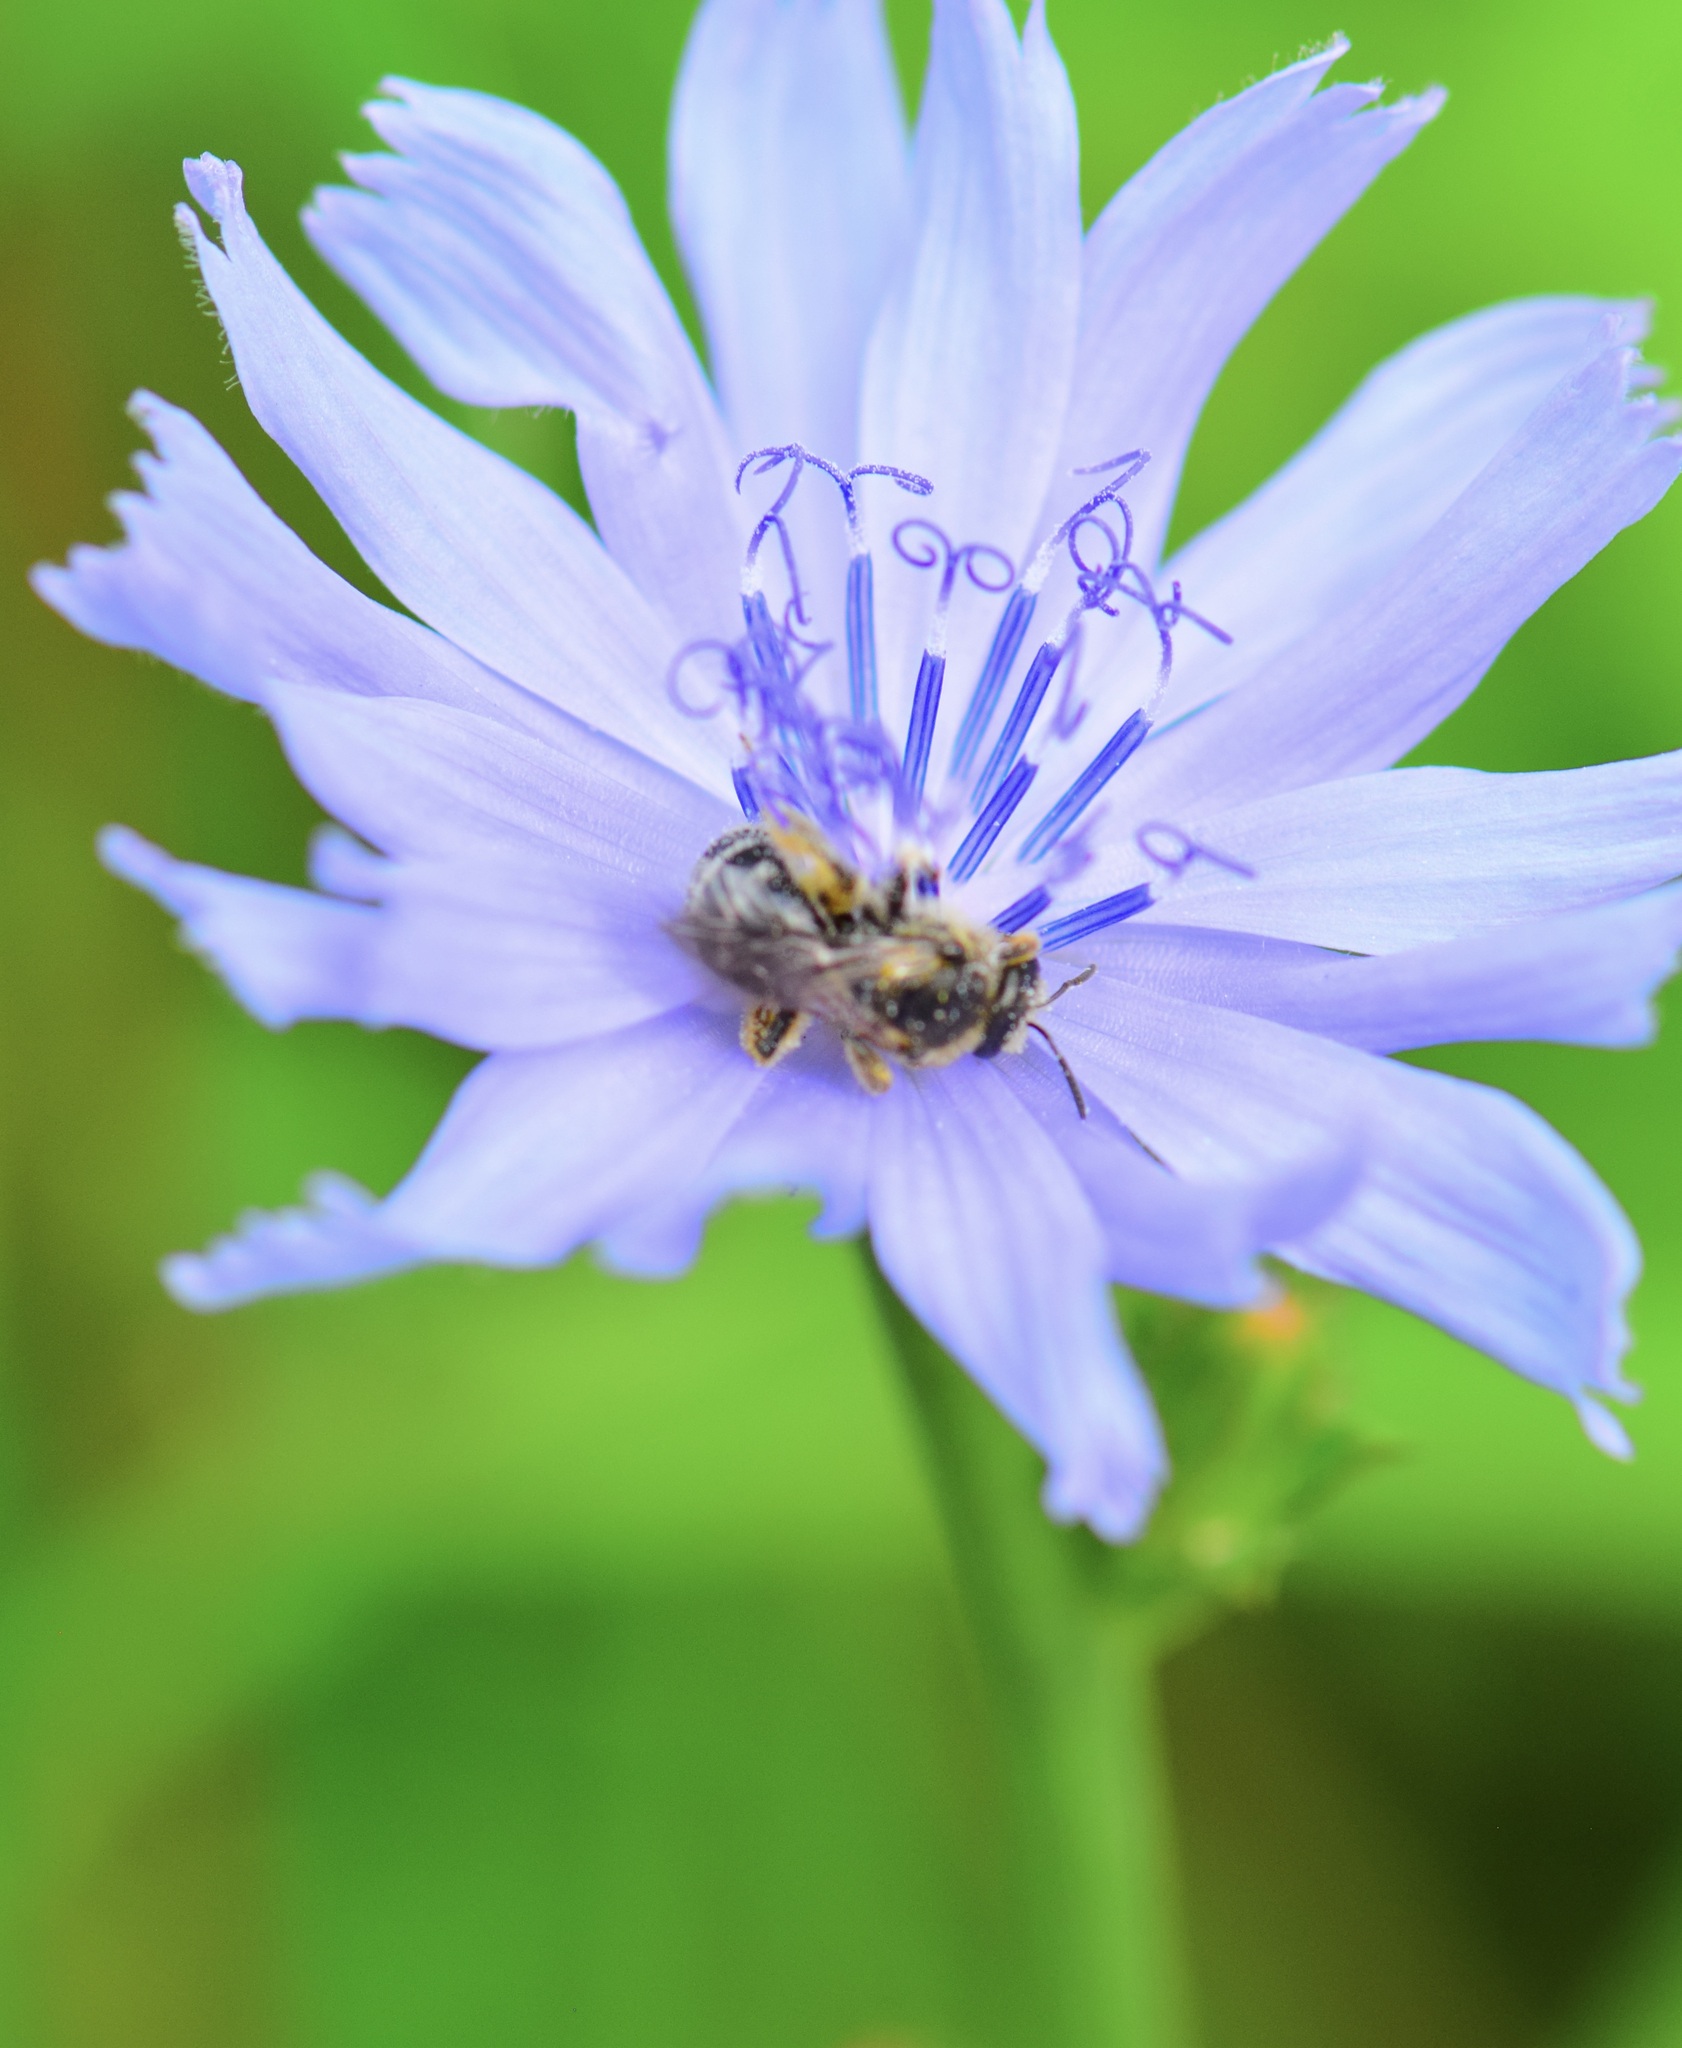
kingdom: Animalia
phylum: Arthropoda
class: Insecta
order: Hymenoptera
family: Halictidae
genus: Lasioglossum
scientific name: Lasioglossum leucozonium
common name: White-zoned furrow bee
